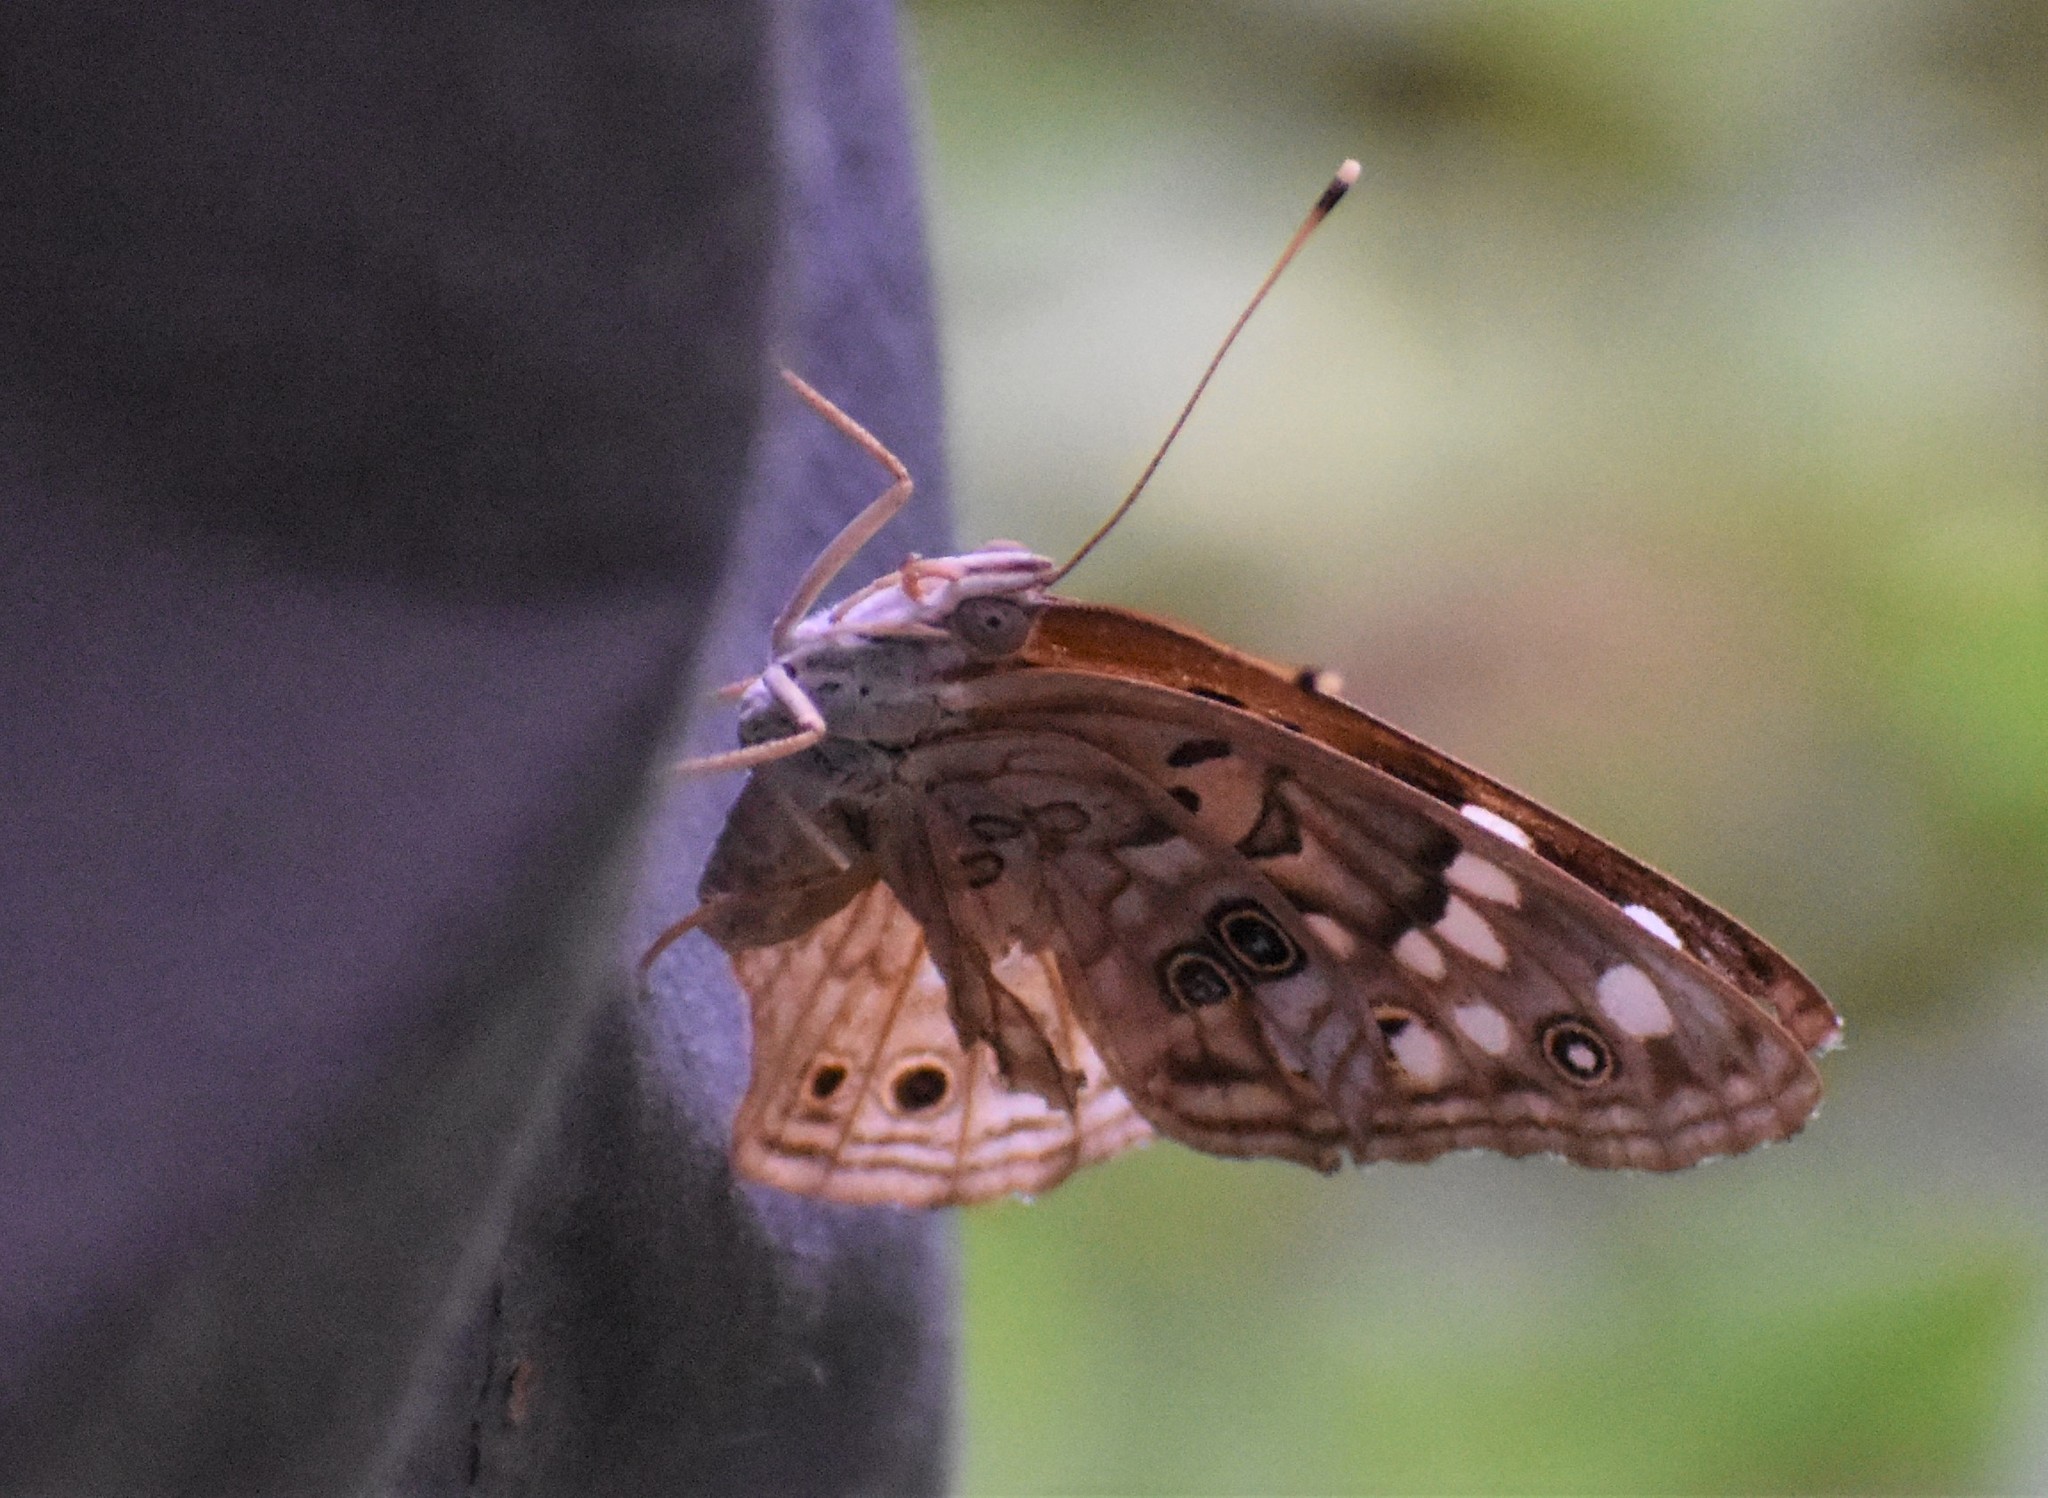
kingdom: Animalia
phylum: Arthropoda
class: Insecta
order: Lepidoptera
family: Nymphalidae
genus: Asterocampa
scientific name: Asterocampa celtis
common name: Hackberry emperor
